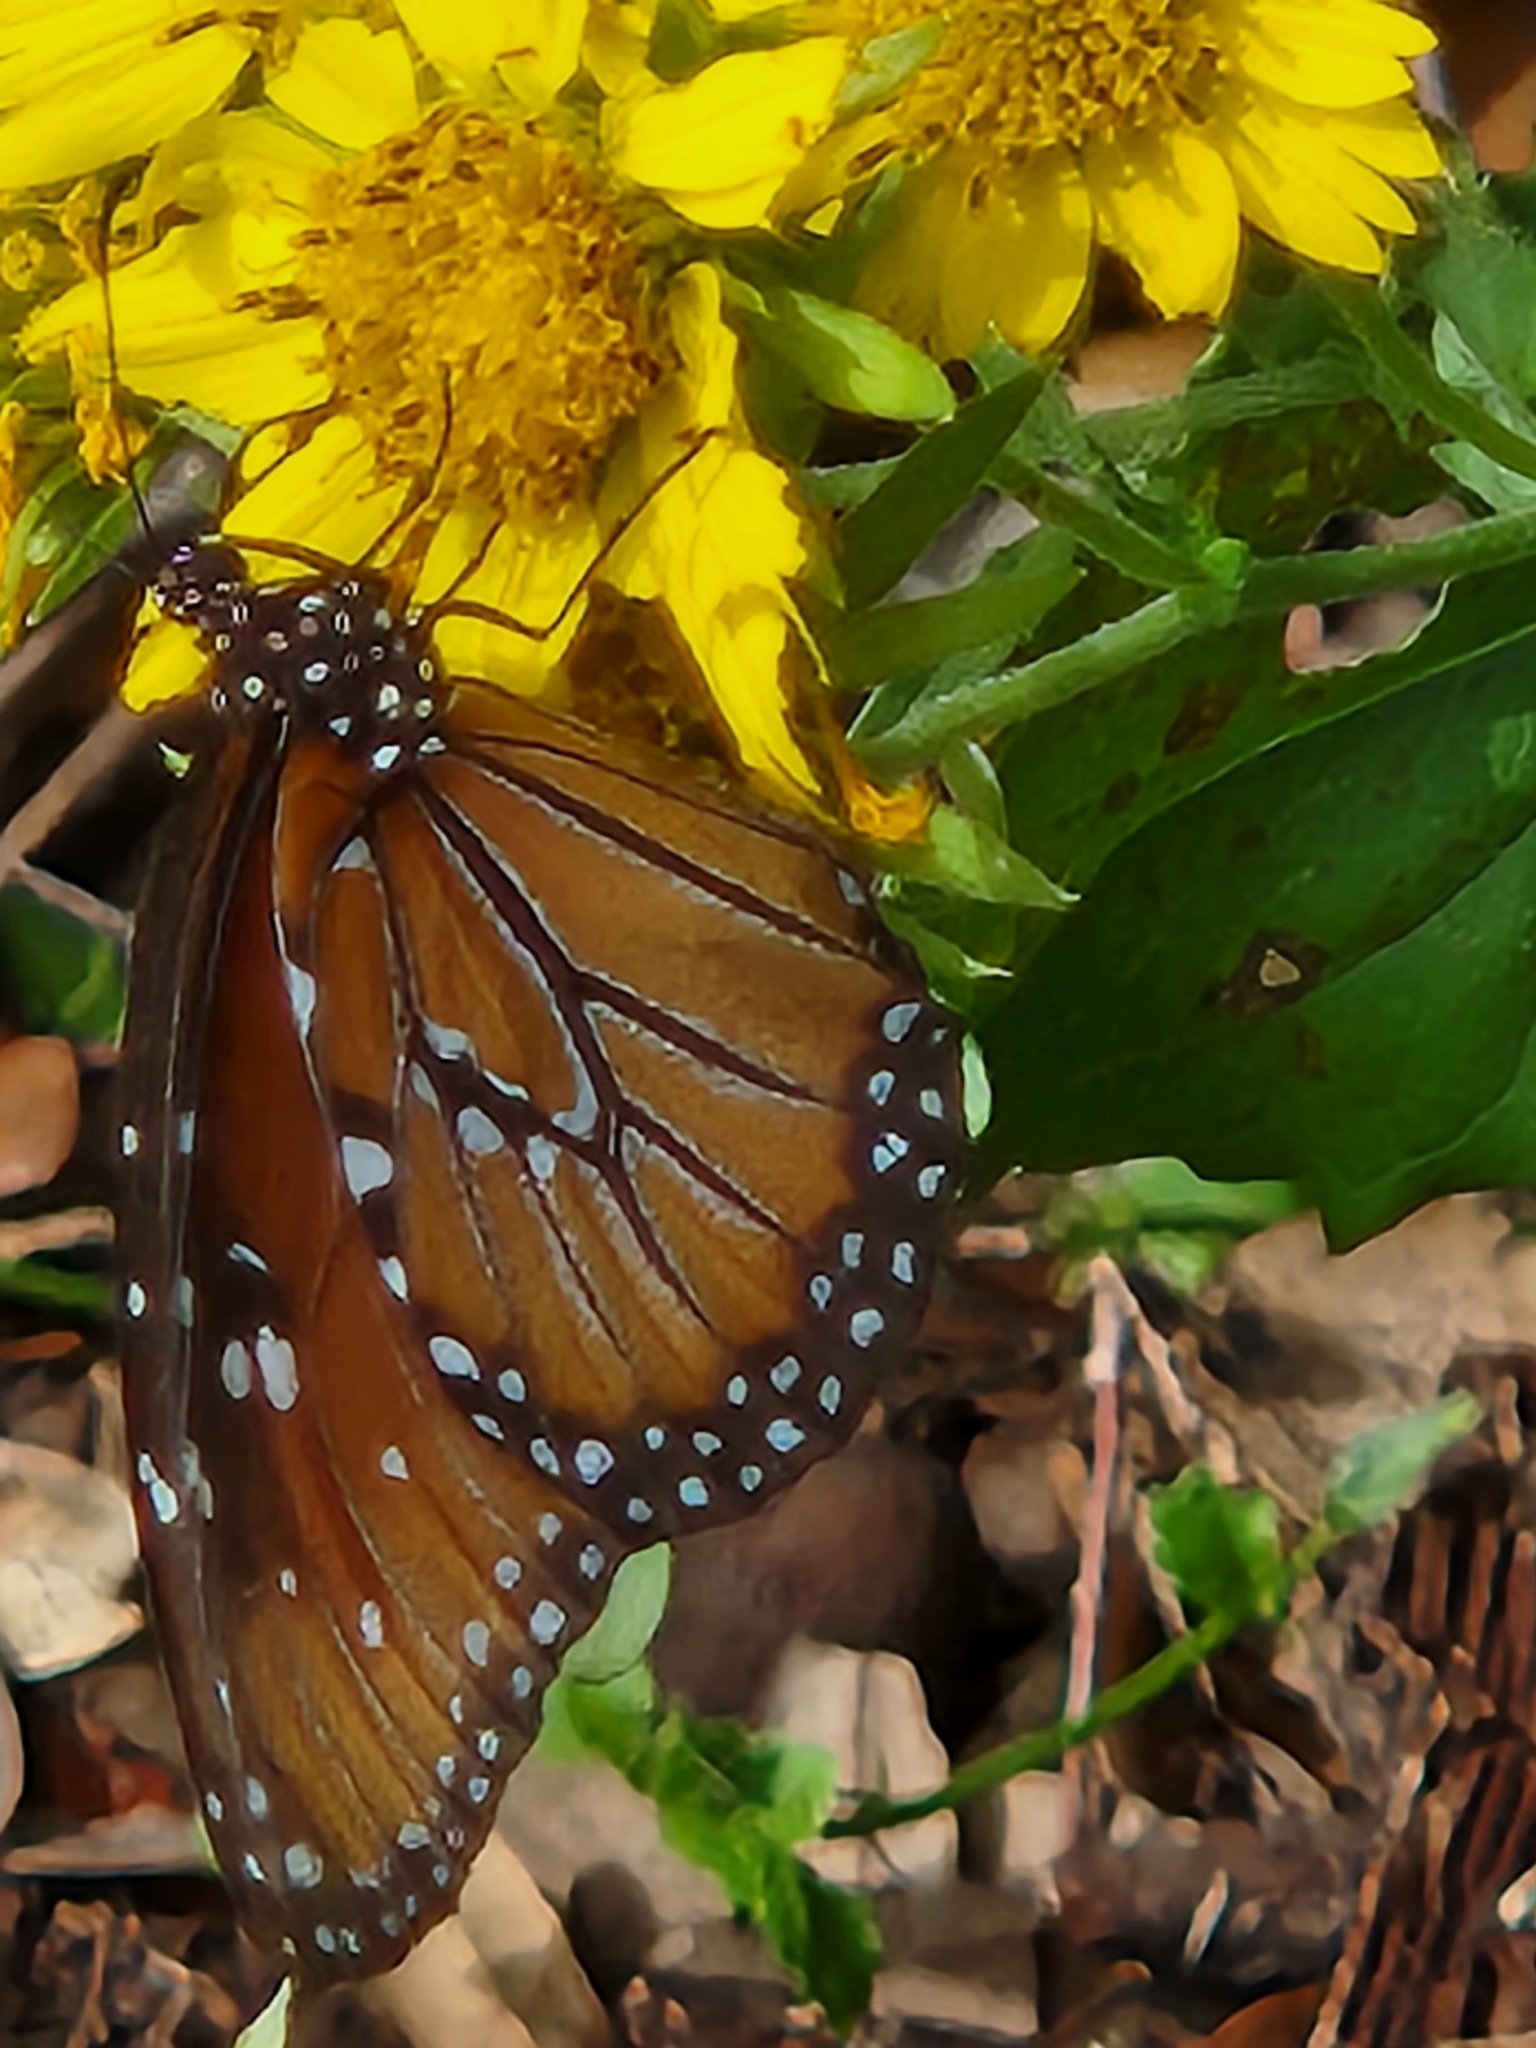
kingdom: Animalia
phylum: Arthropoda
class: Insecta
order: Lepidoptera
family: Nymphalidae
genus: Danaus
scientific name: Danaus gilippus
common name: Queen
